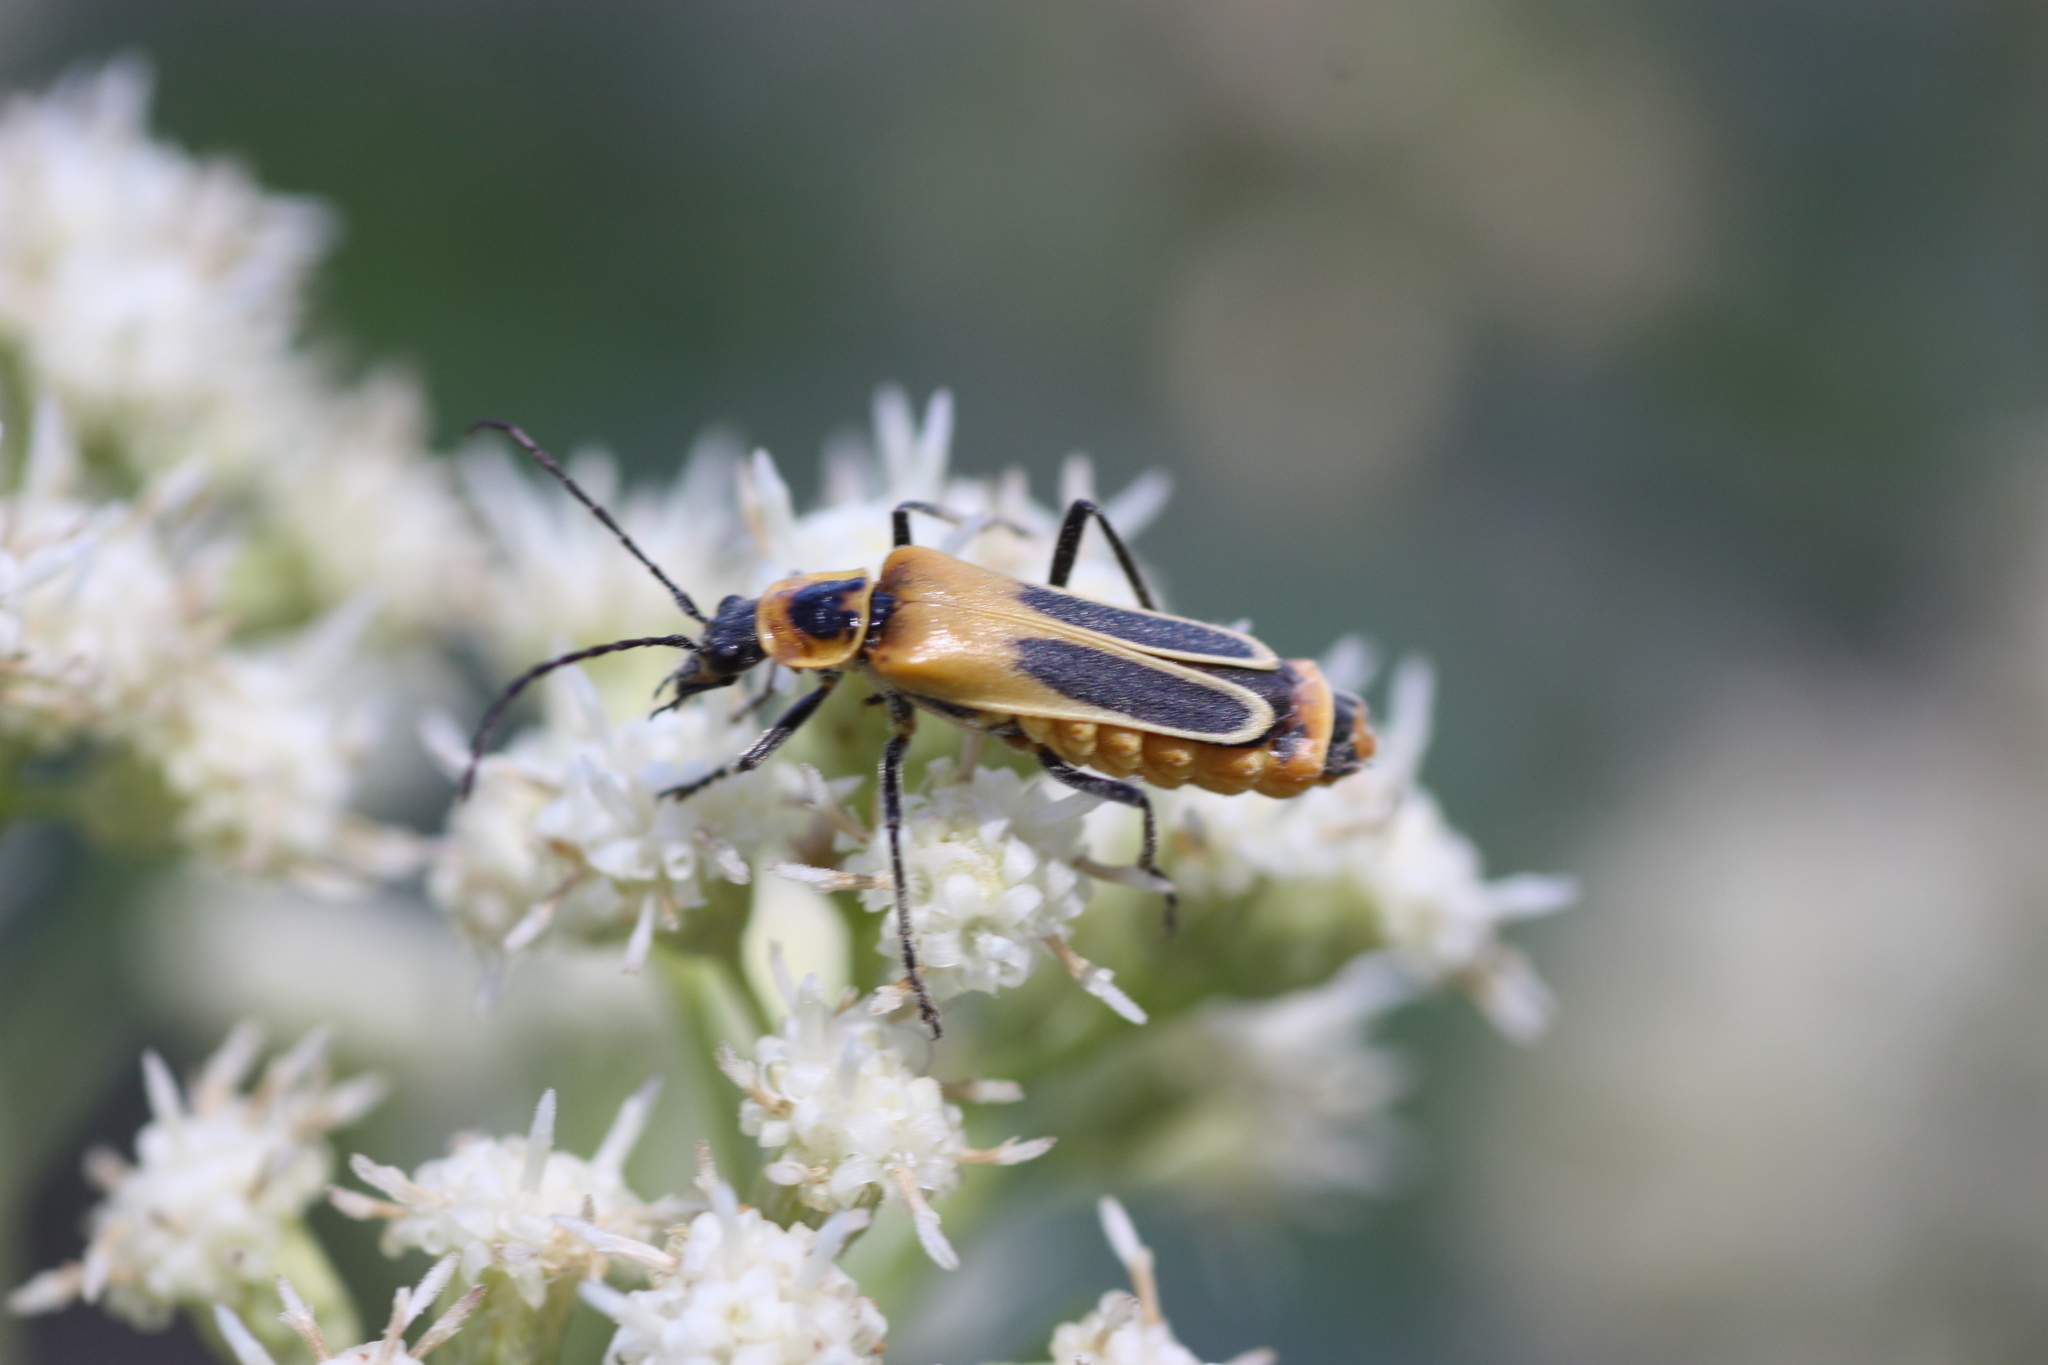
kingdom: Animalia
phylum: Arthropoda
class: Insecta
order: Coleoptera
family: Cantharidae
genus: Chauliognathus
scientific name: Chauliognathus lewisi
